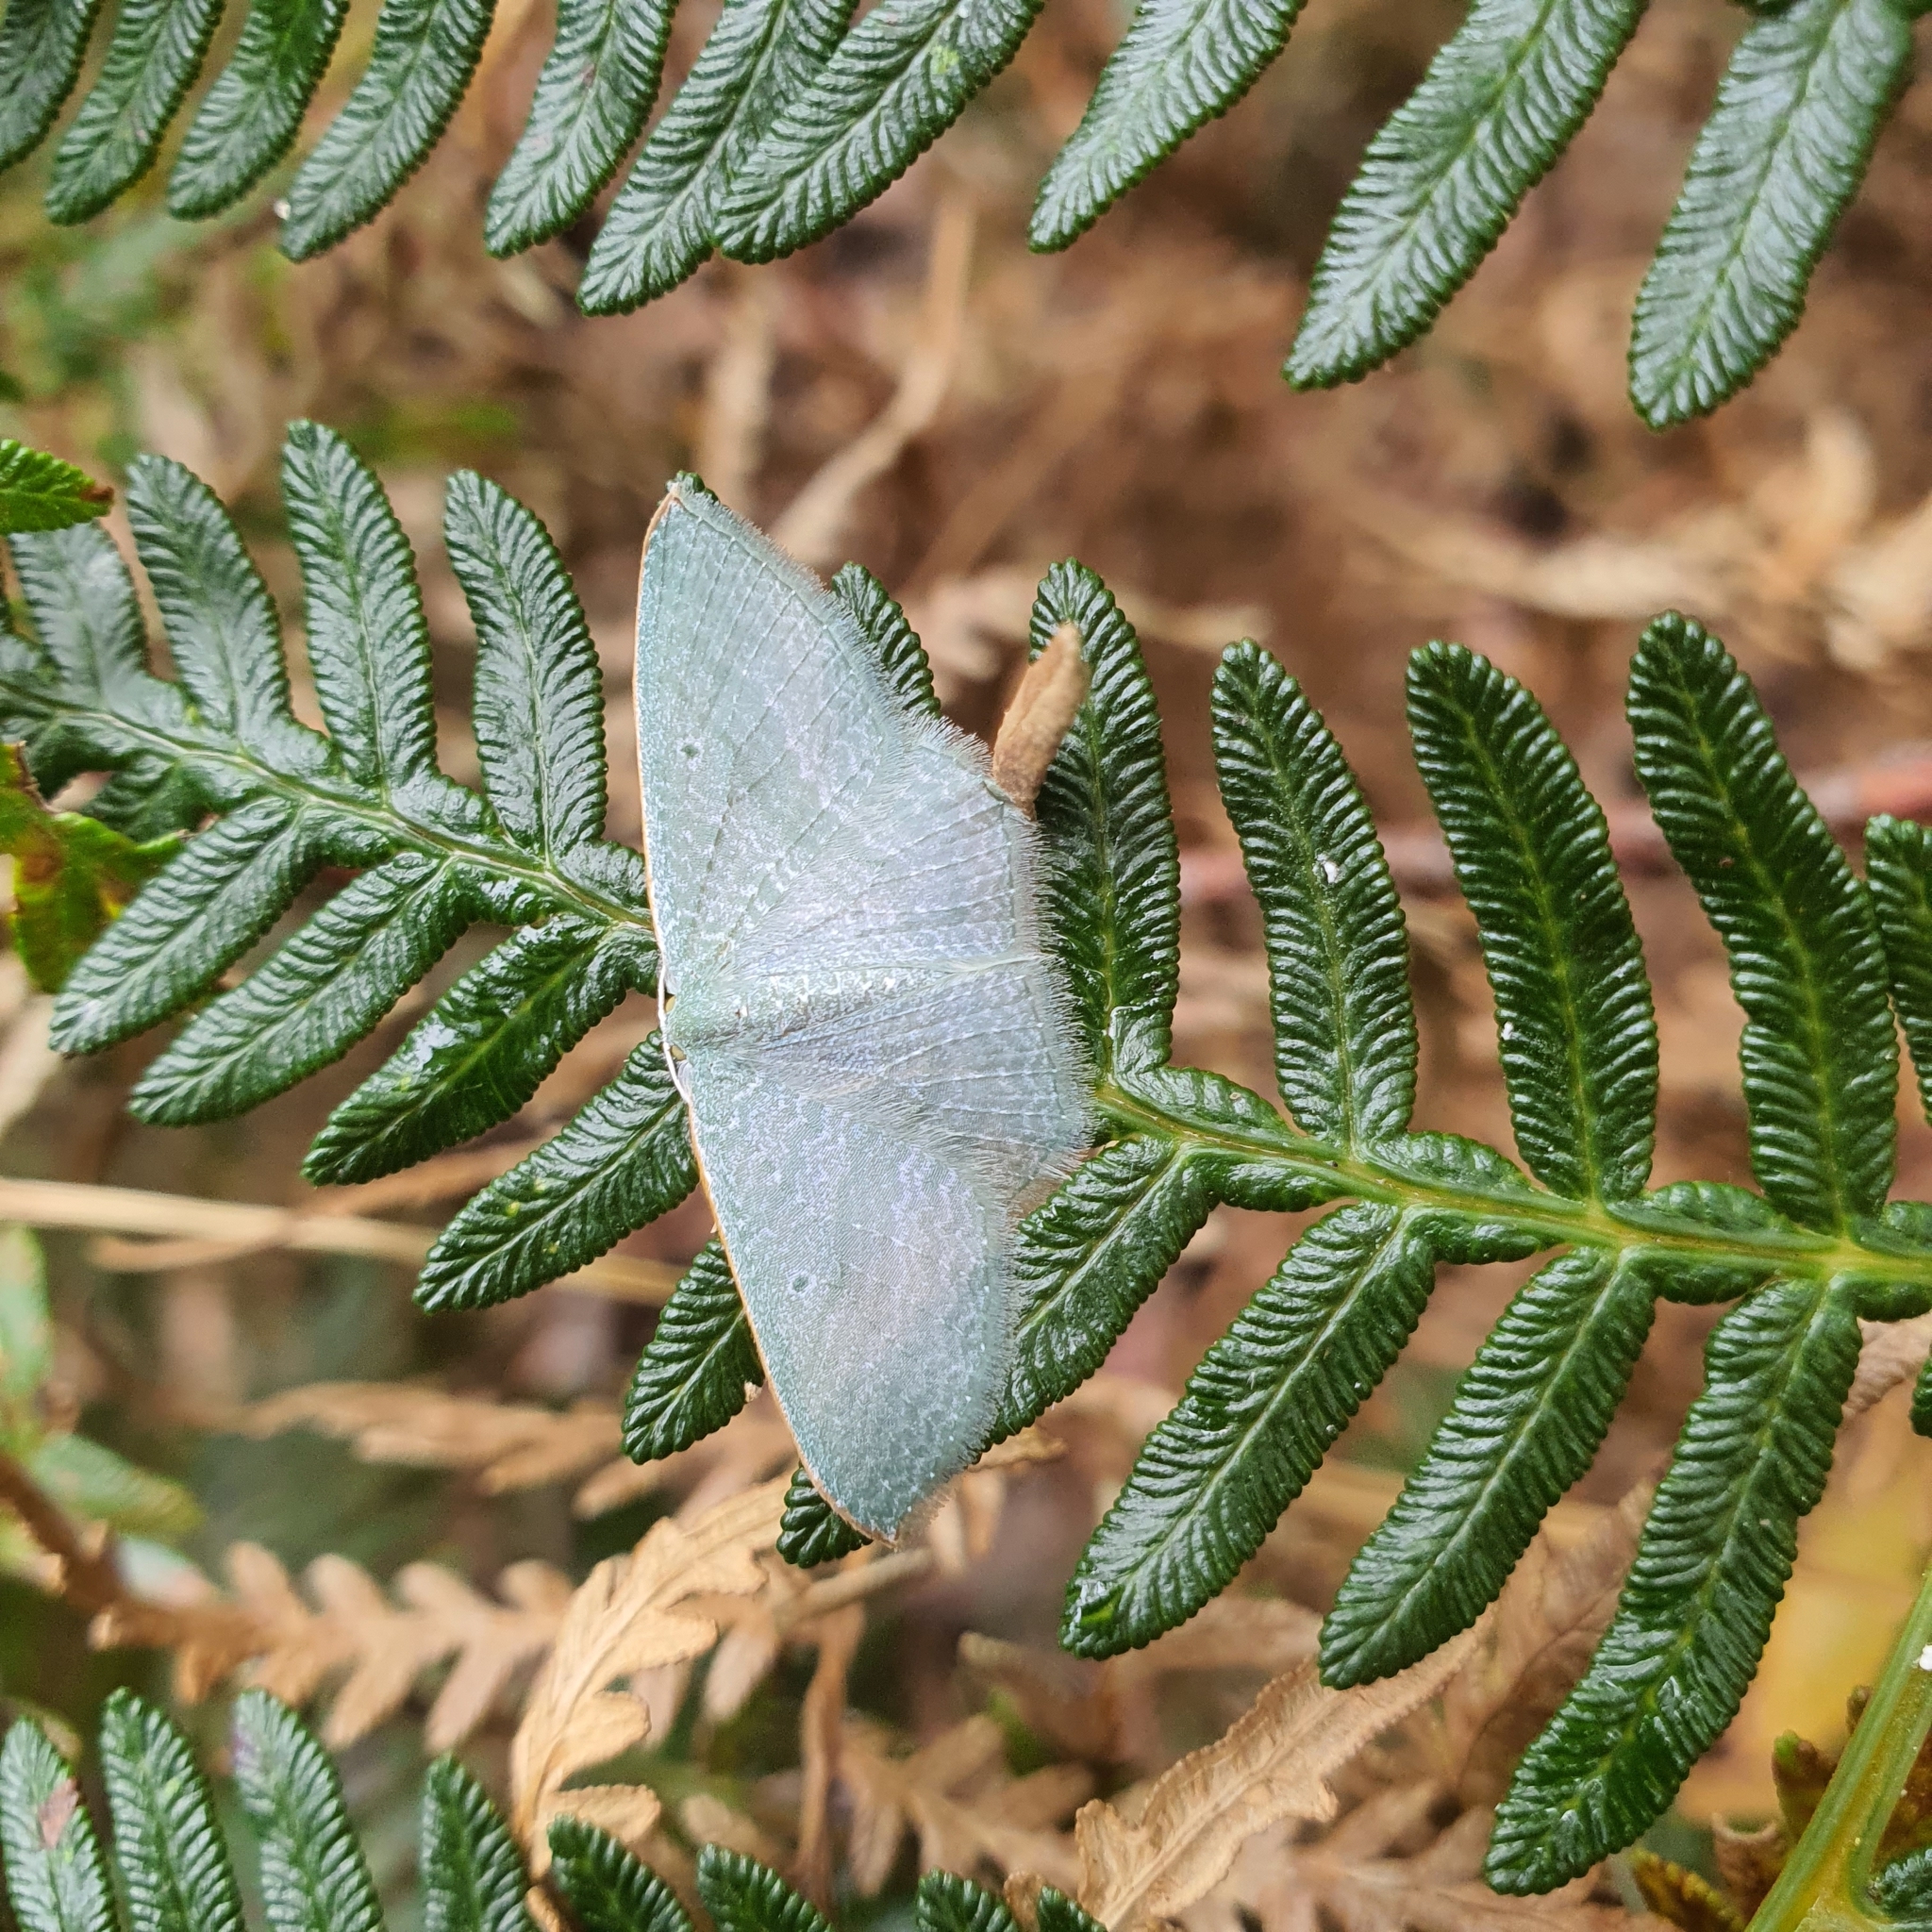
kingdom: Animalia
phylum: Arthropoda
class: Insecta
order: Lepidoptera
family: Geometridae
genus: Poecilasthena
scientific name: Poecilasthena thalassias
